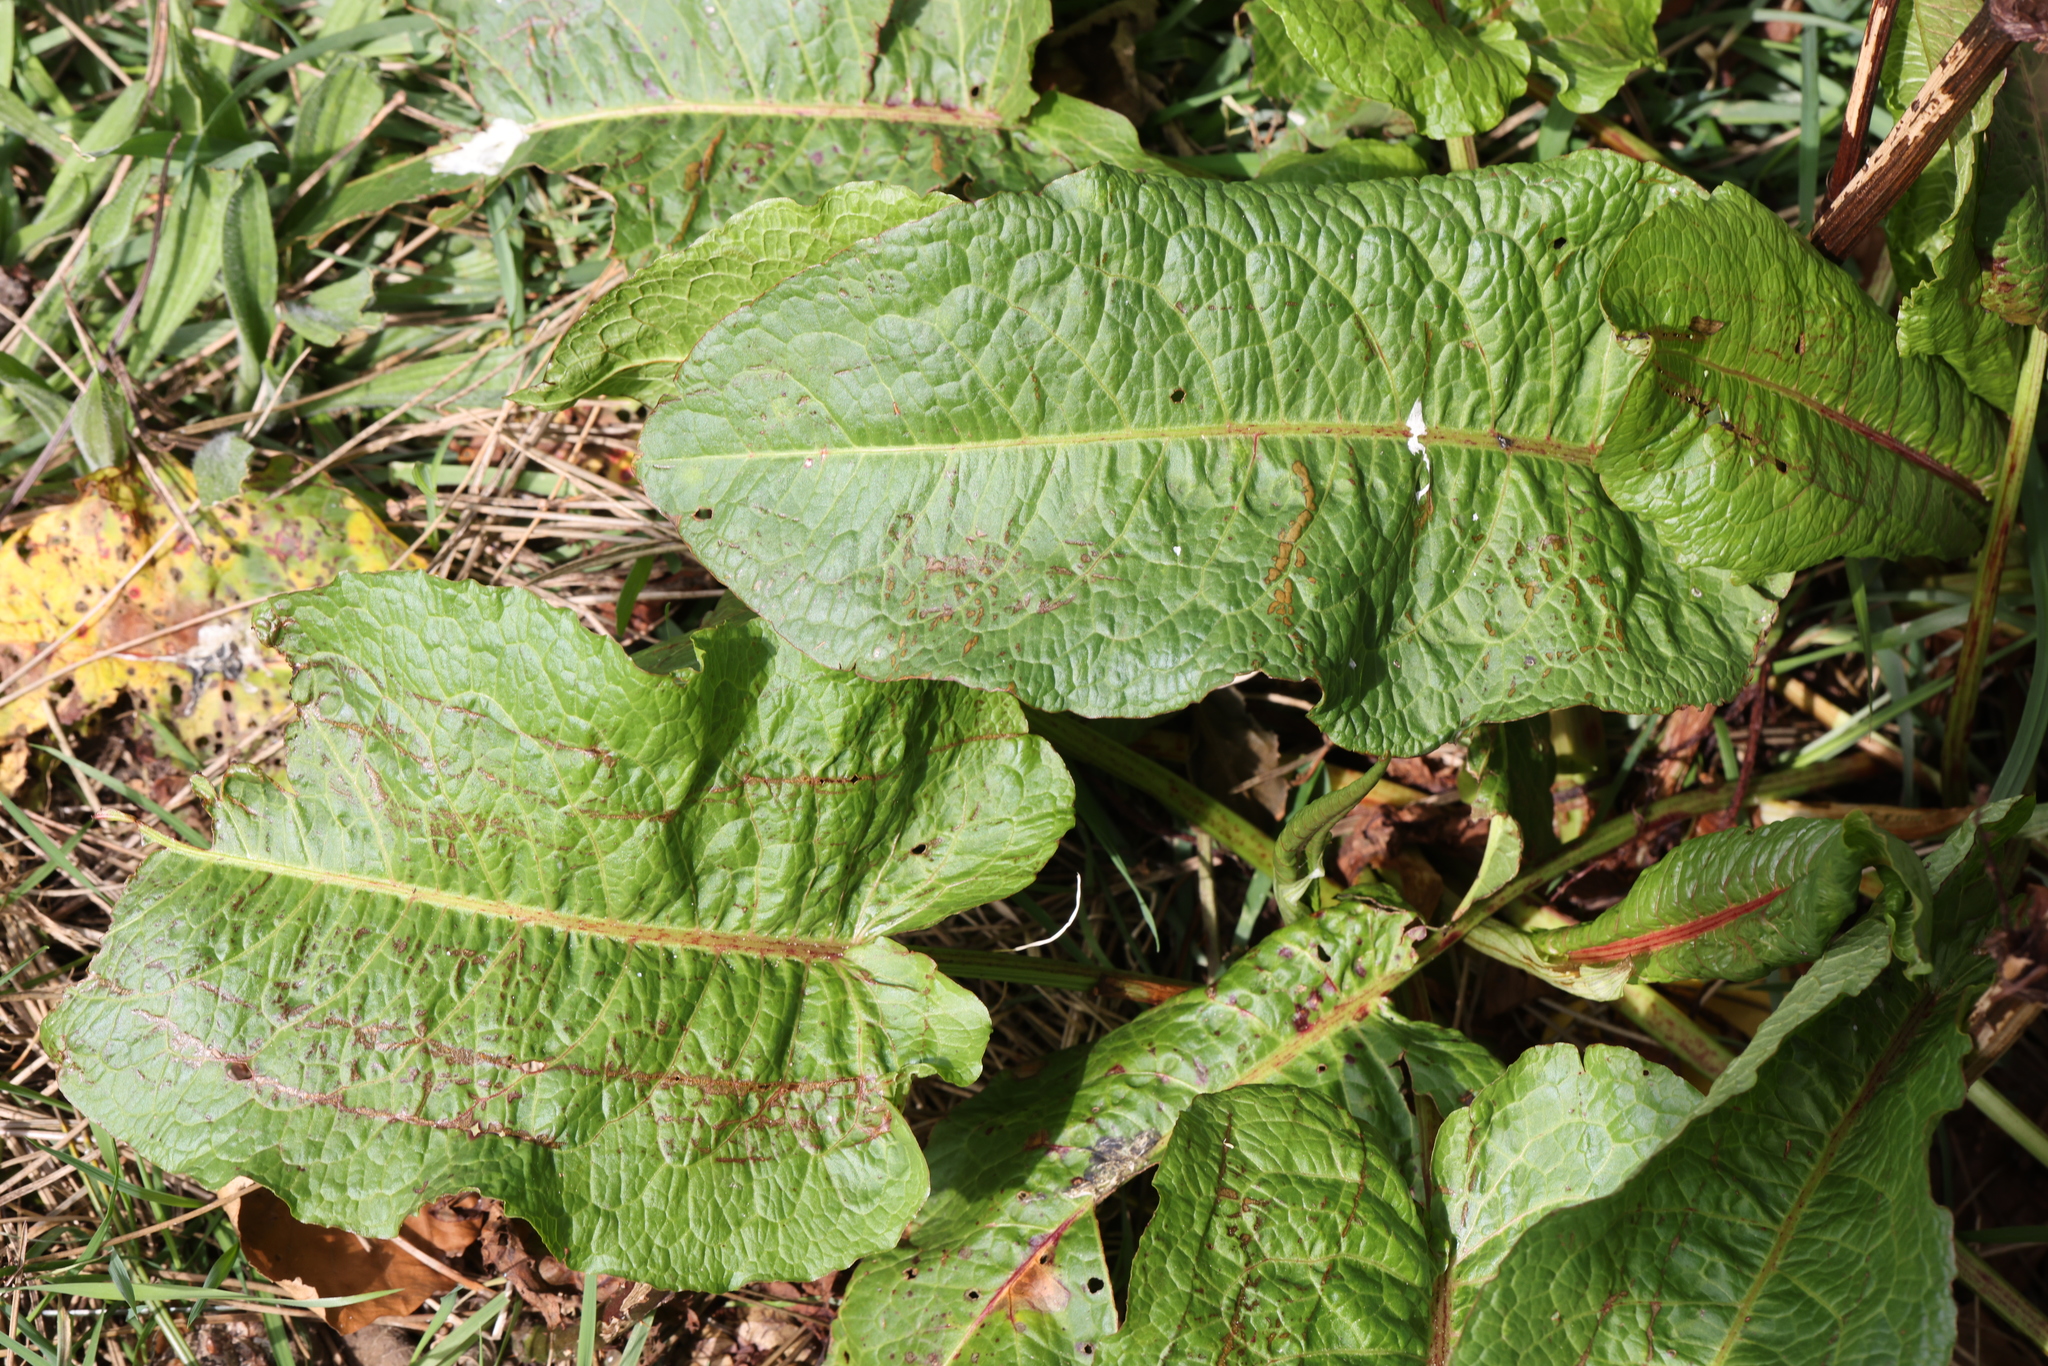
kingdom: Plantae
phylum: Tracheophyta
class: Magnoliopsida
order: Caryophyllales
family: Polygonaceae
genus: Rumex
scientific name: Rumex obtusifolius
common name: Bitter dock
